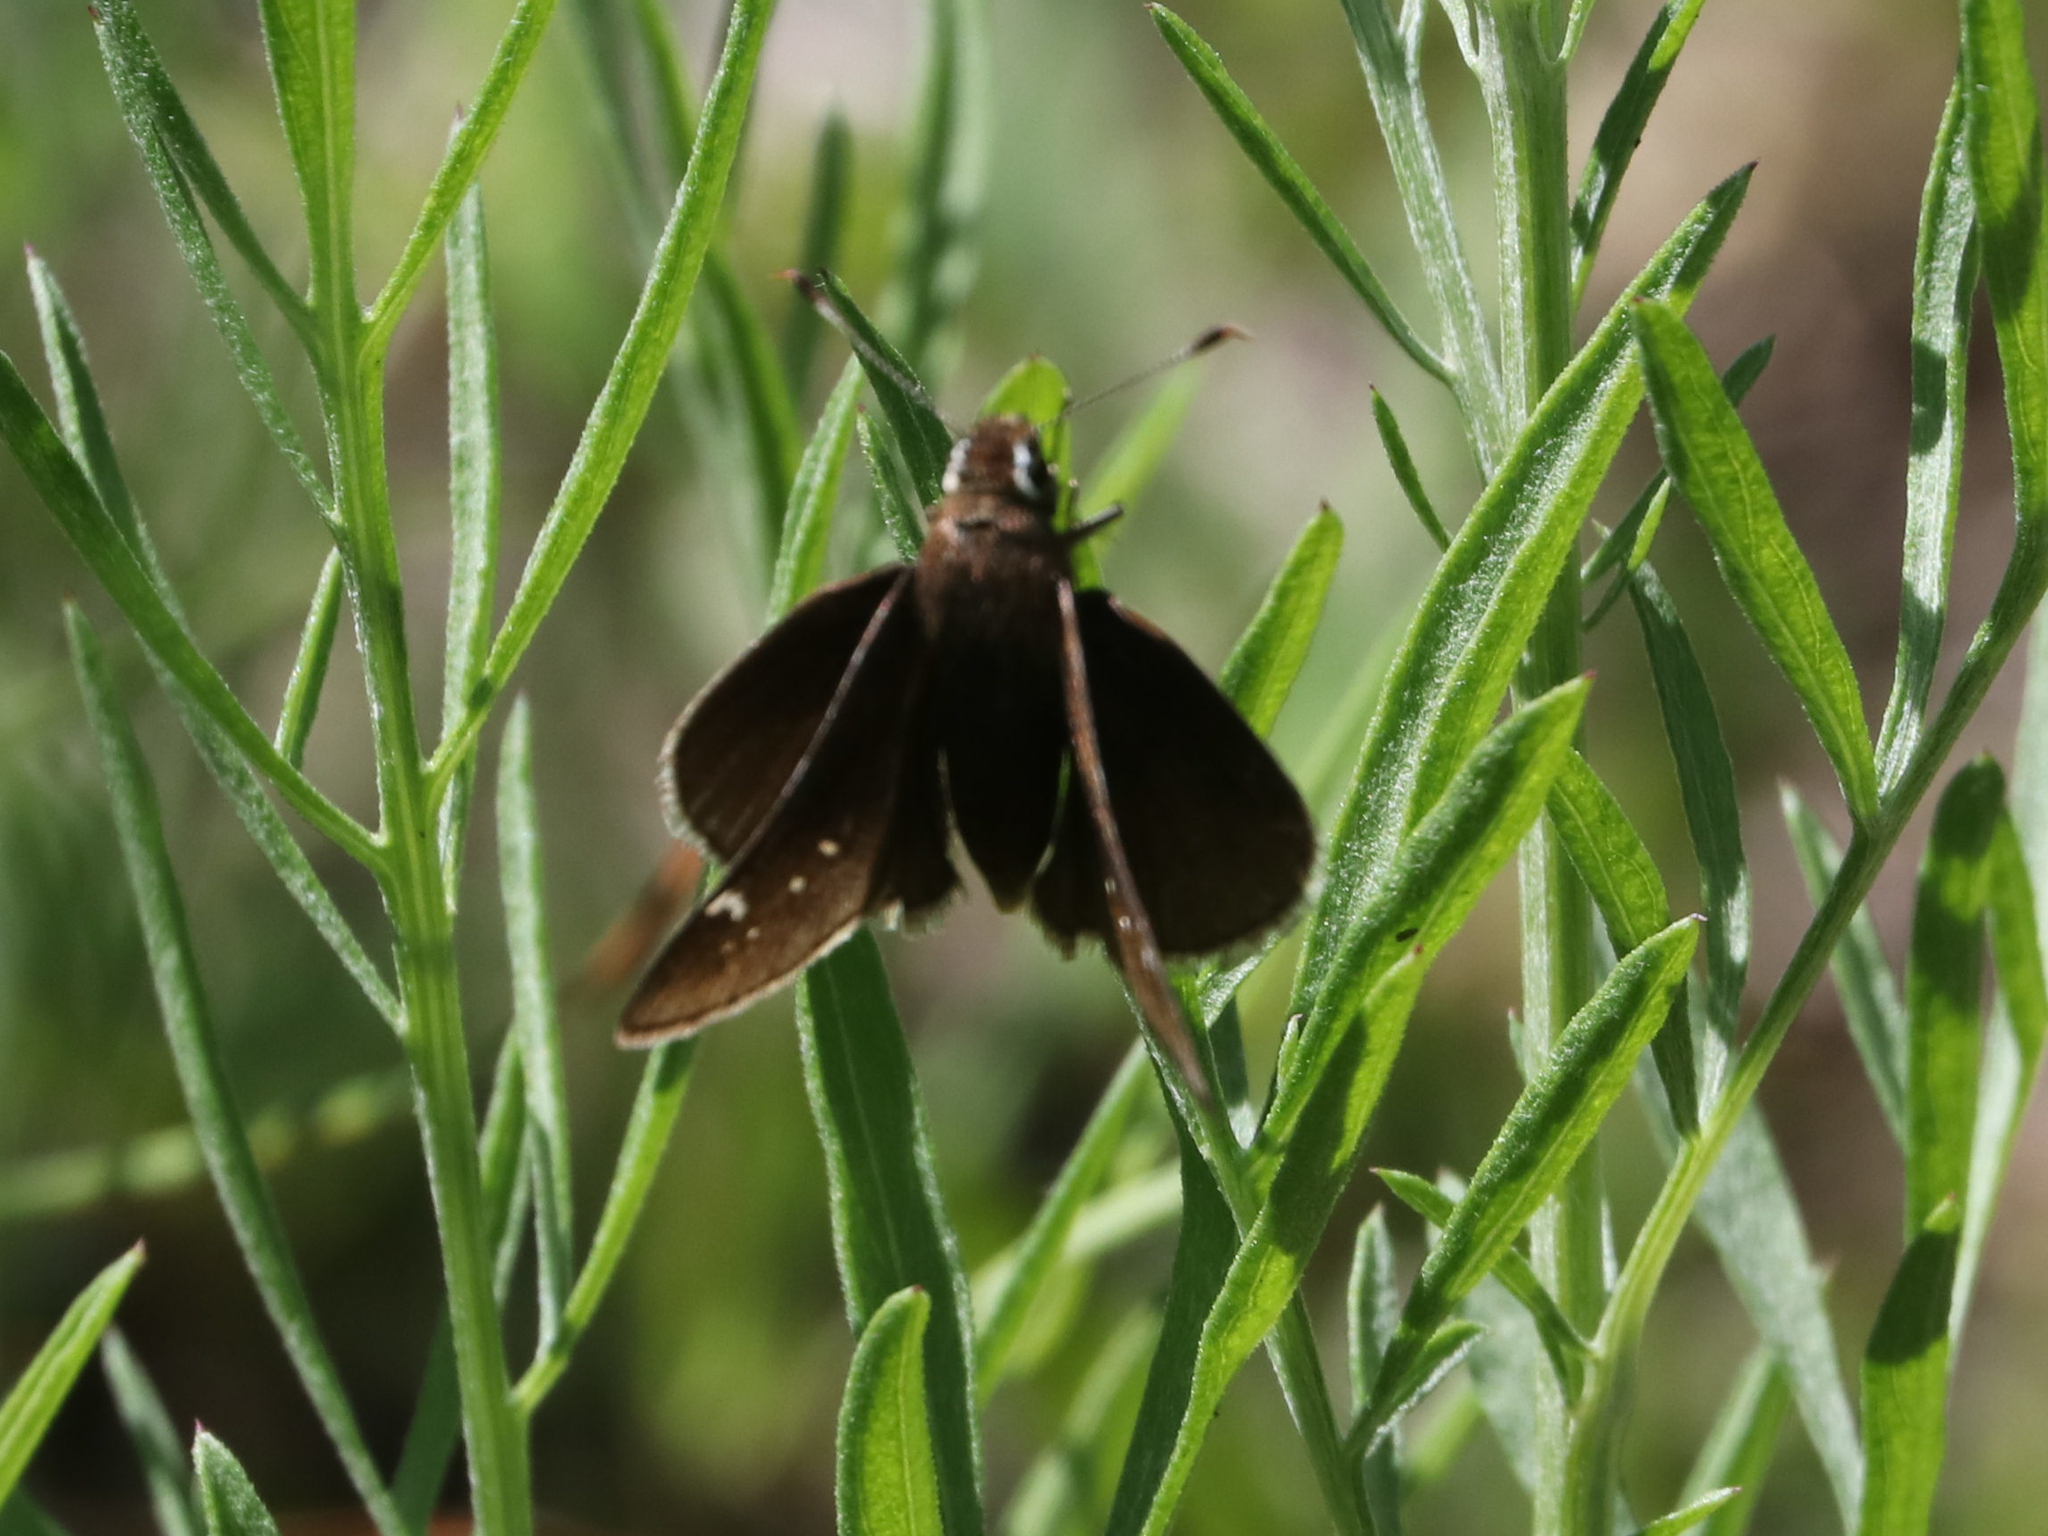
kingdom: Animalia
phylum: Arthropoda
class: Insecta
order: Lepidoptera
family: Hesperiidae
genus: Atrytonopsis
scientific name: Atrytonopsis hianna
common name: Dusted skipper
